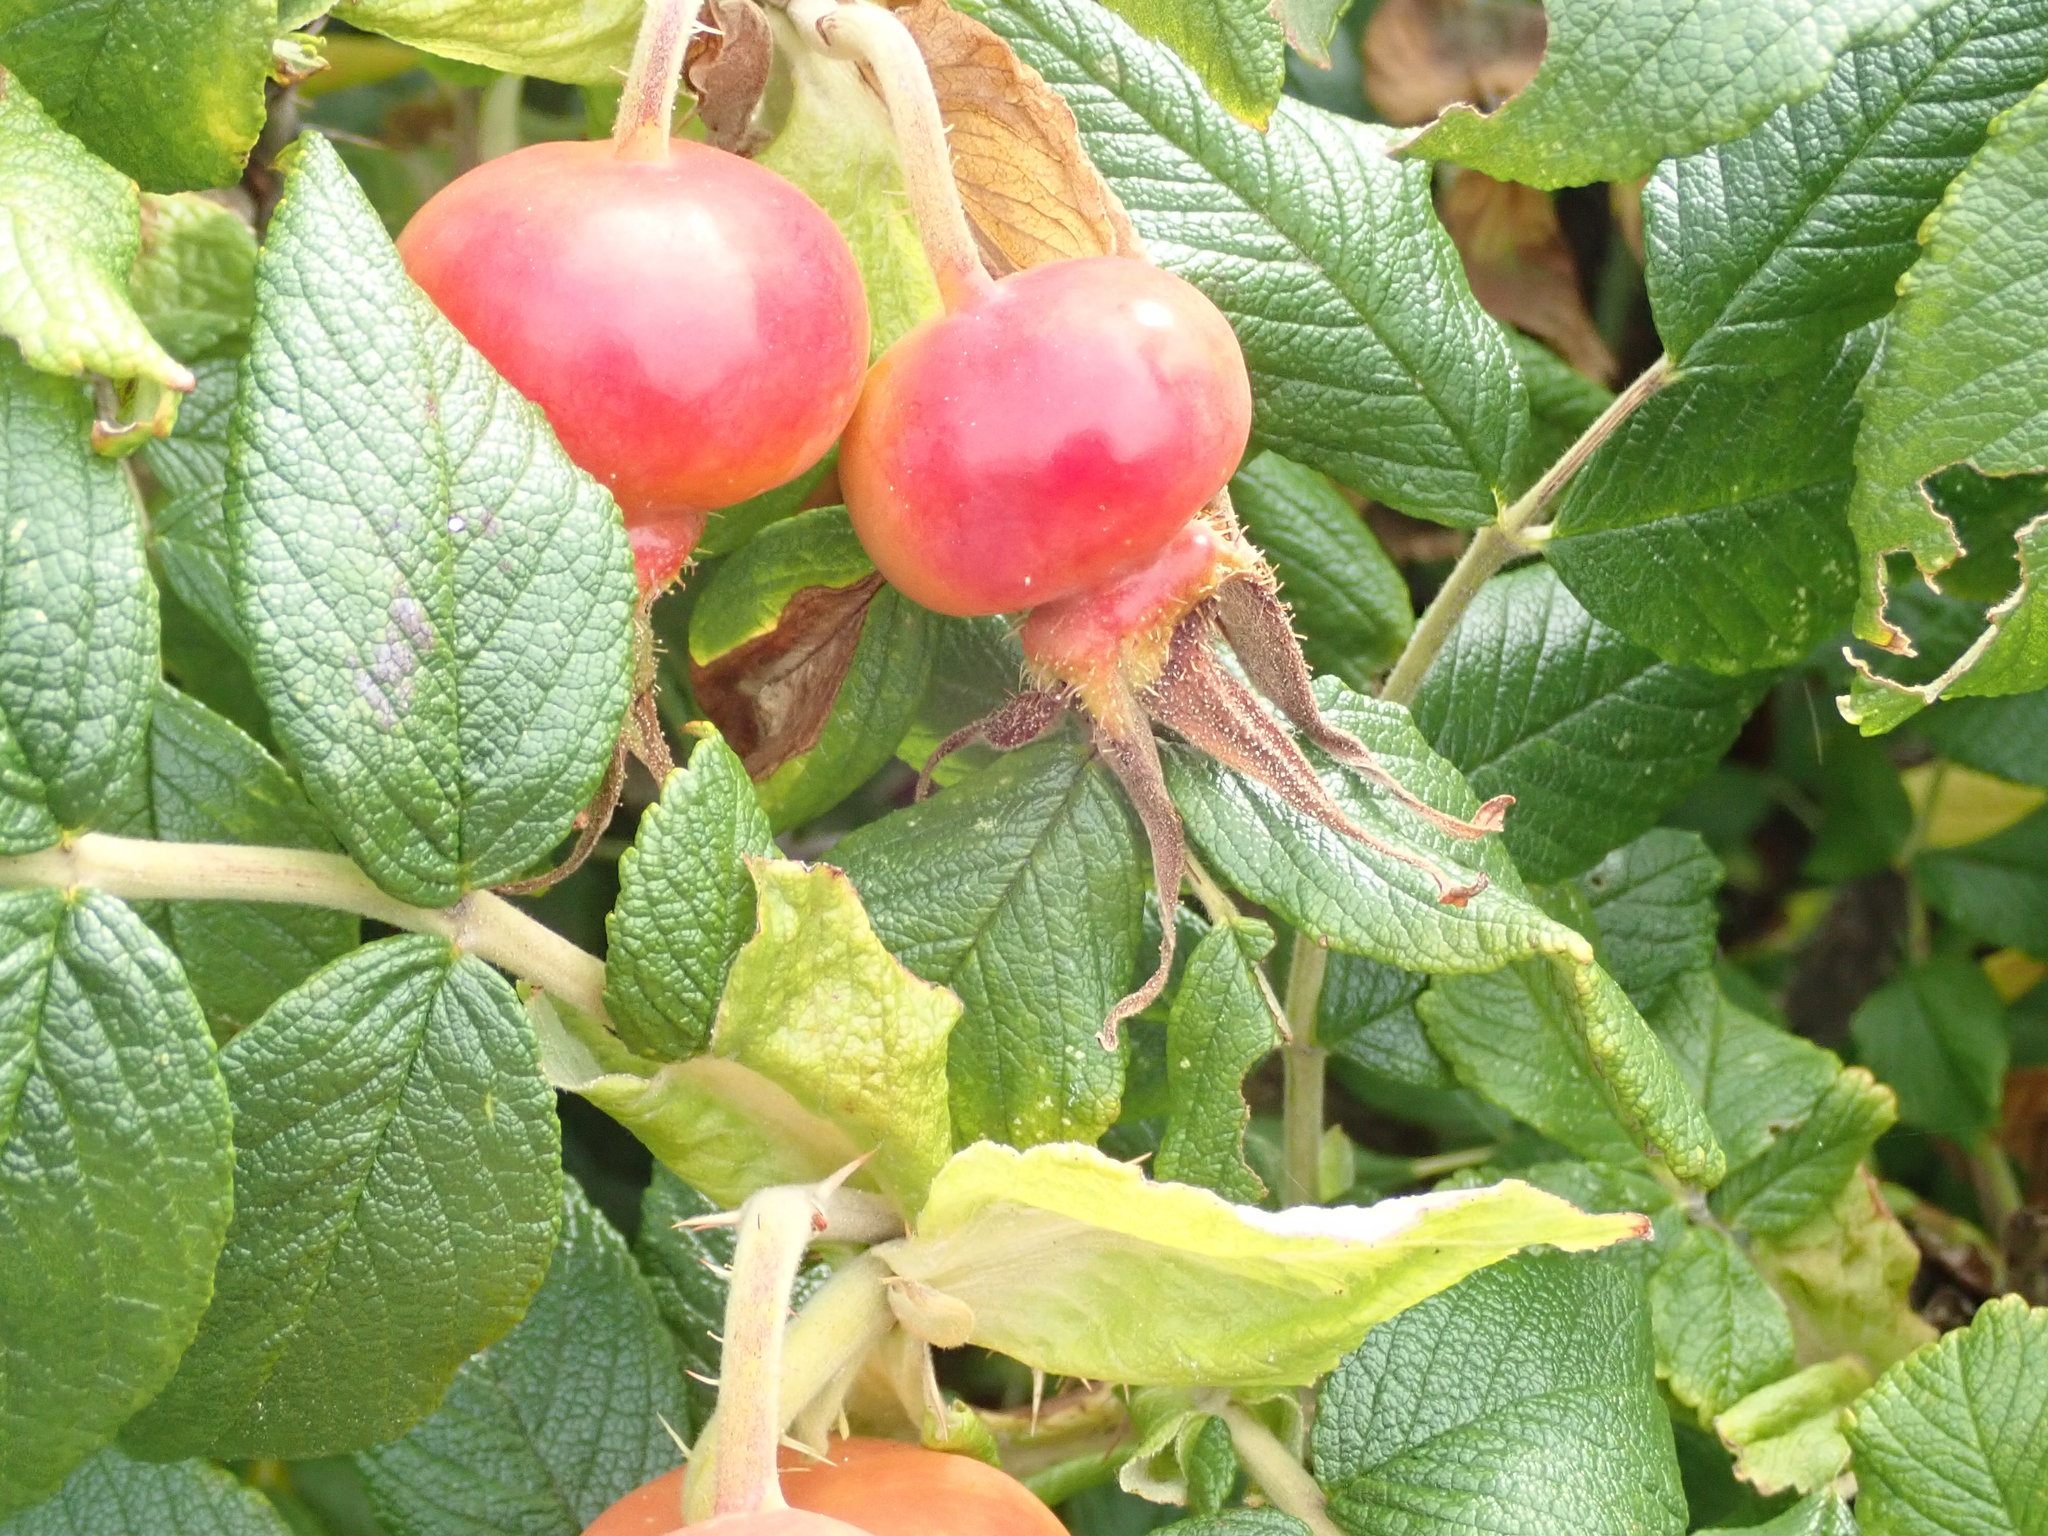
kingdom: Plantae
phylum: Tracheophyta
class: Magnoliopsida
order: Rosales
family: Rosaceae
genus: Rosa
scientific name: Rosa rugosa
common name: Japanese rose
